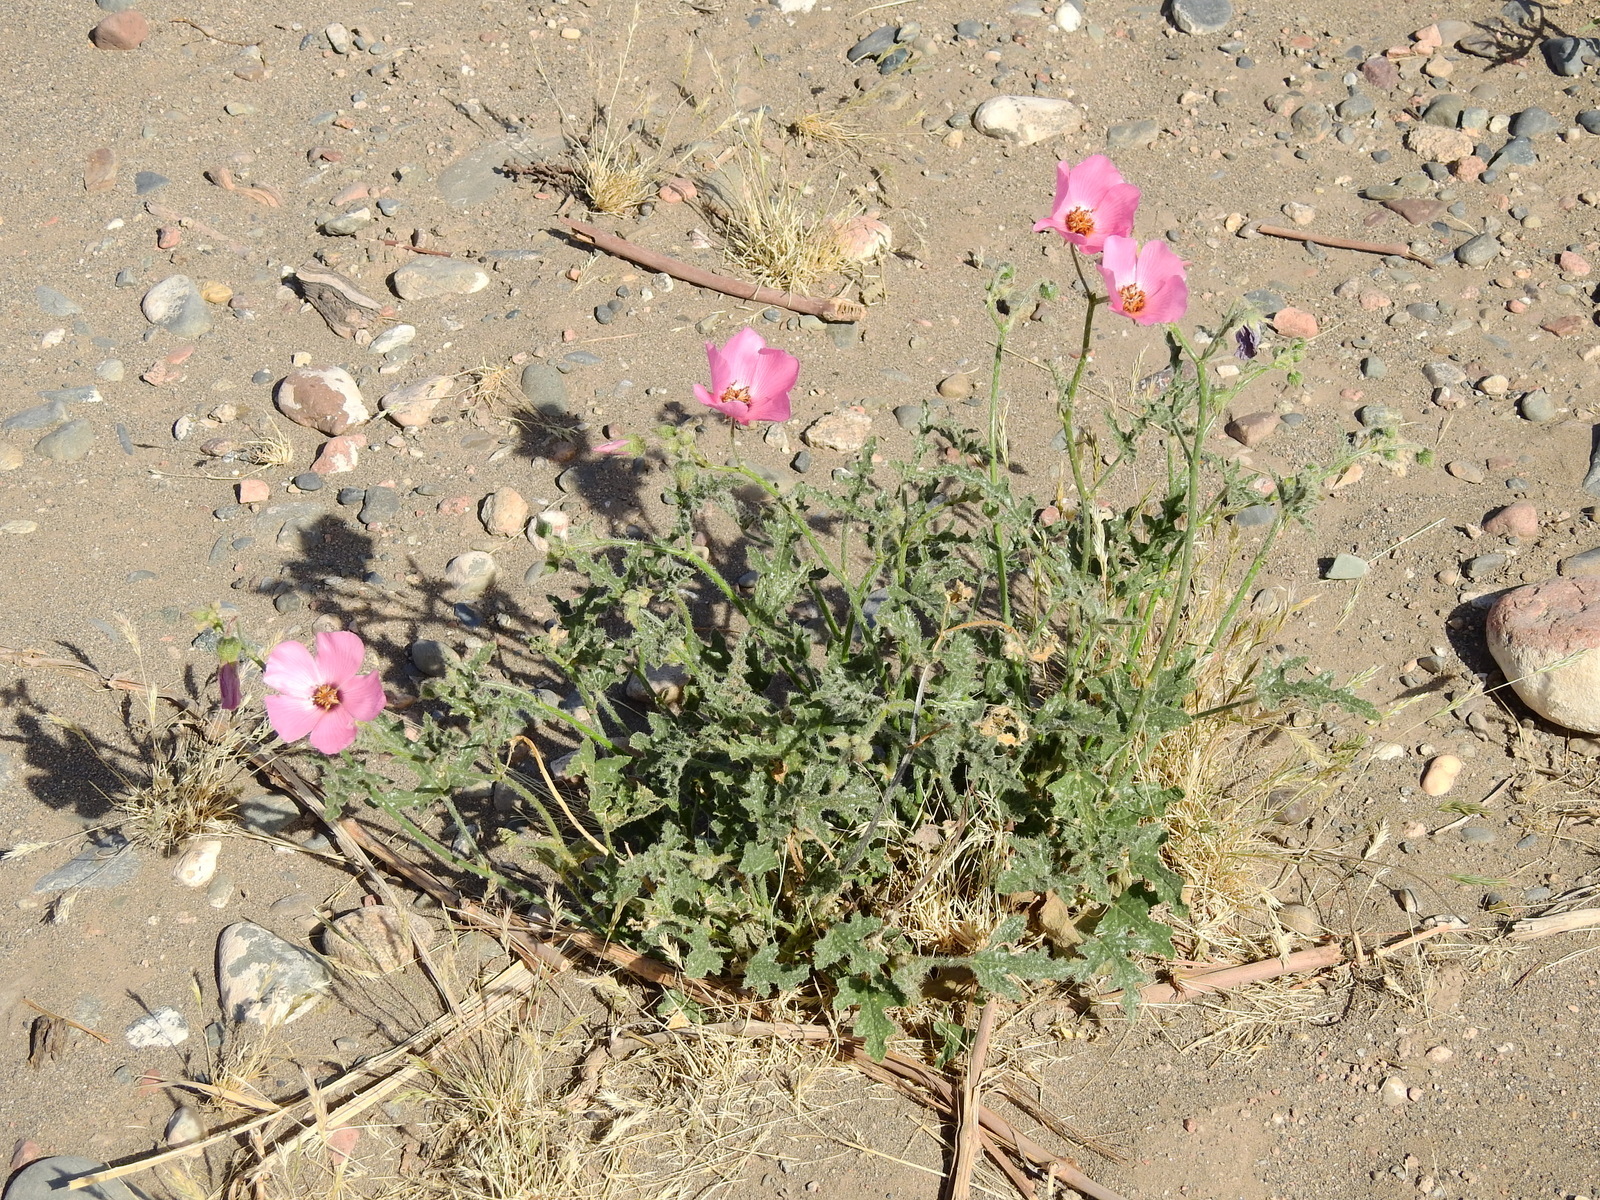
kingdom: Plantae
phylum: Tracheophyta
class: Magnoliopsida
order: Malvales
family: Malvaceae
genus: Lecanophora
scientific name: Lecanophora heterophylla
